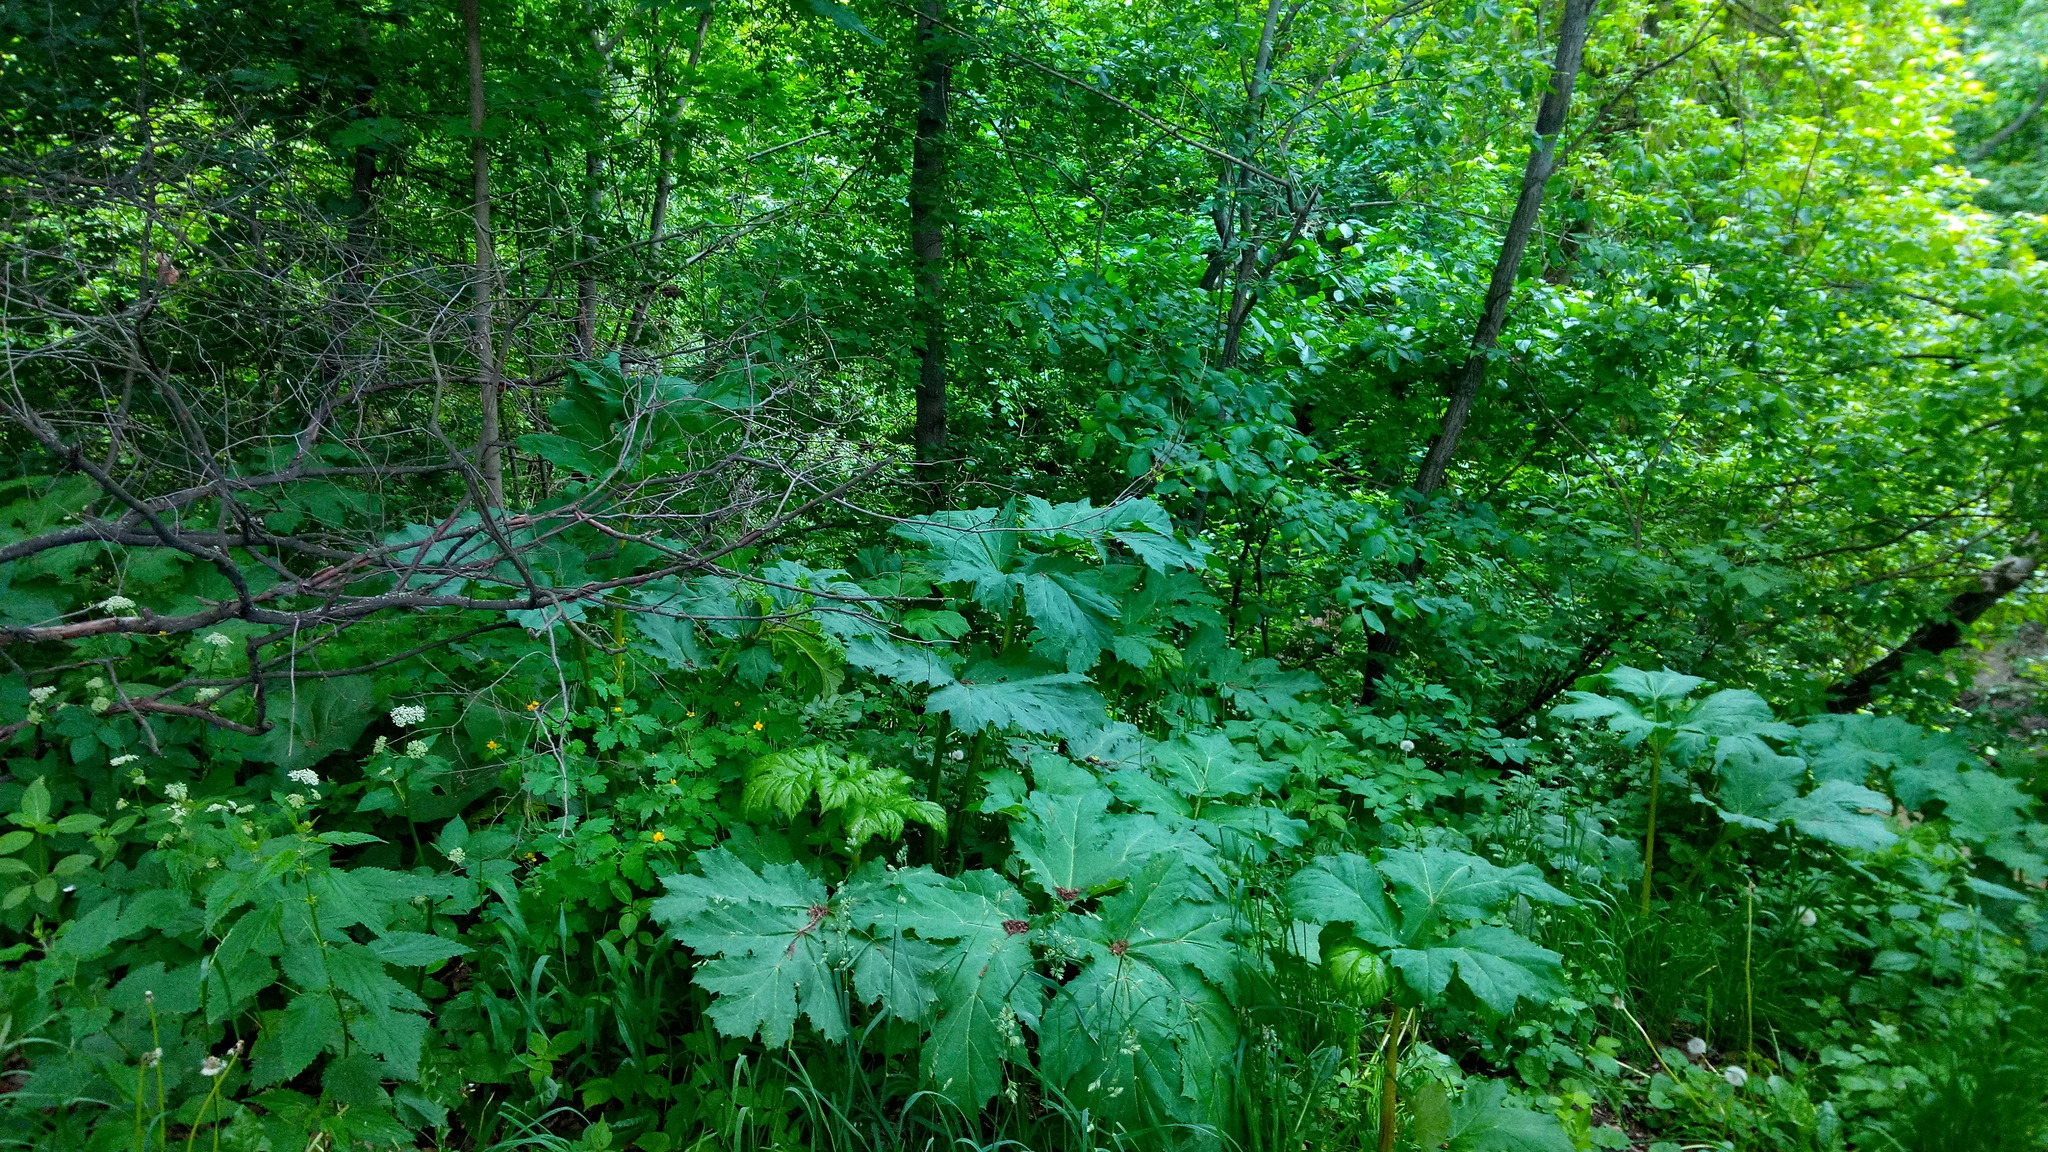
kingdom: Plantae
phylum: Tracheophyta
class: Magnoliopsida
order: Apiales
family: Apiaceae
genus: Heracleum
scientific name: Heracleum sosnowskyi
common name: Sosnowsky's hogweed
